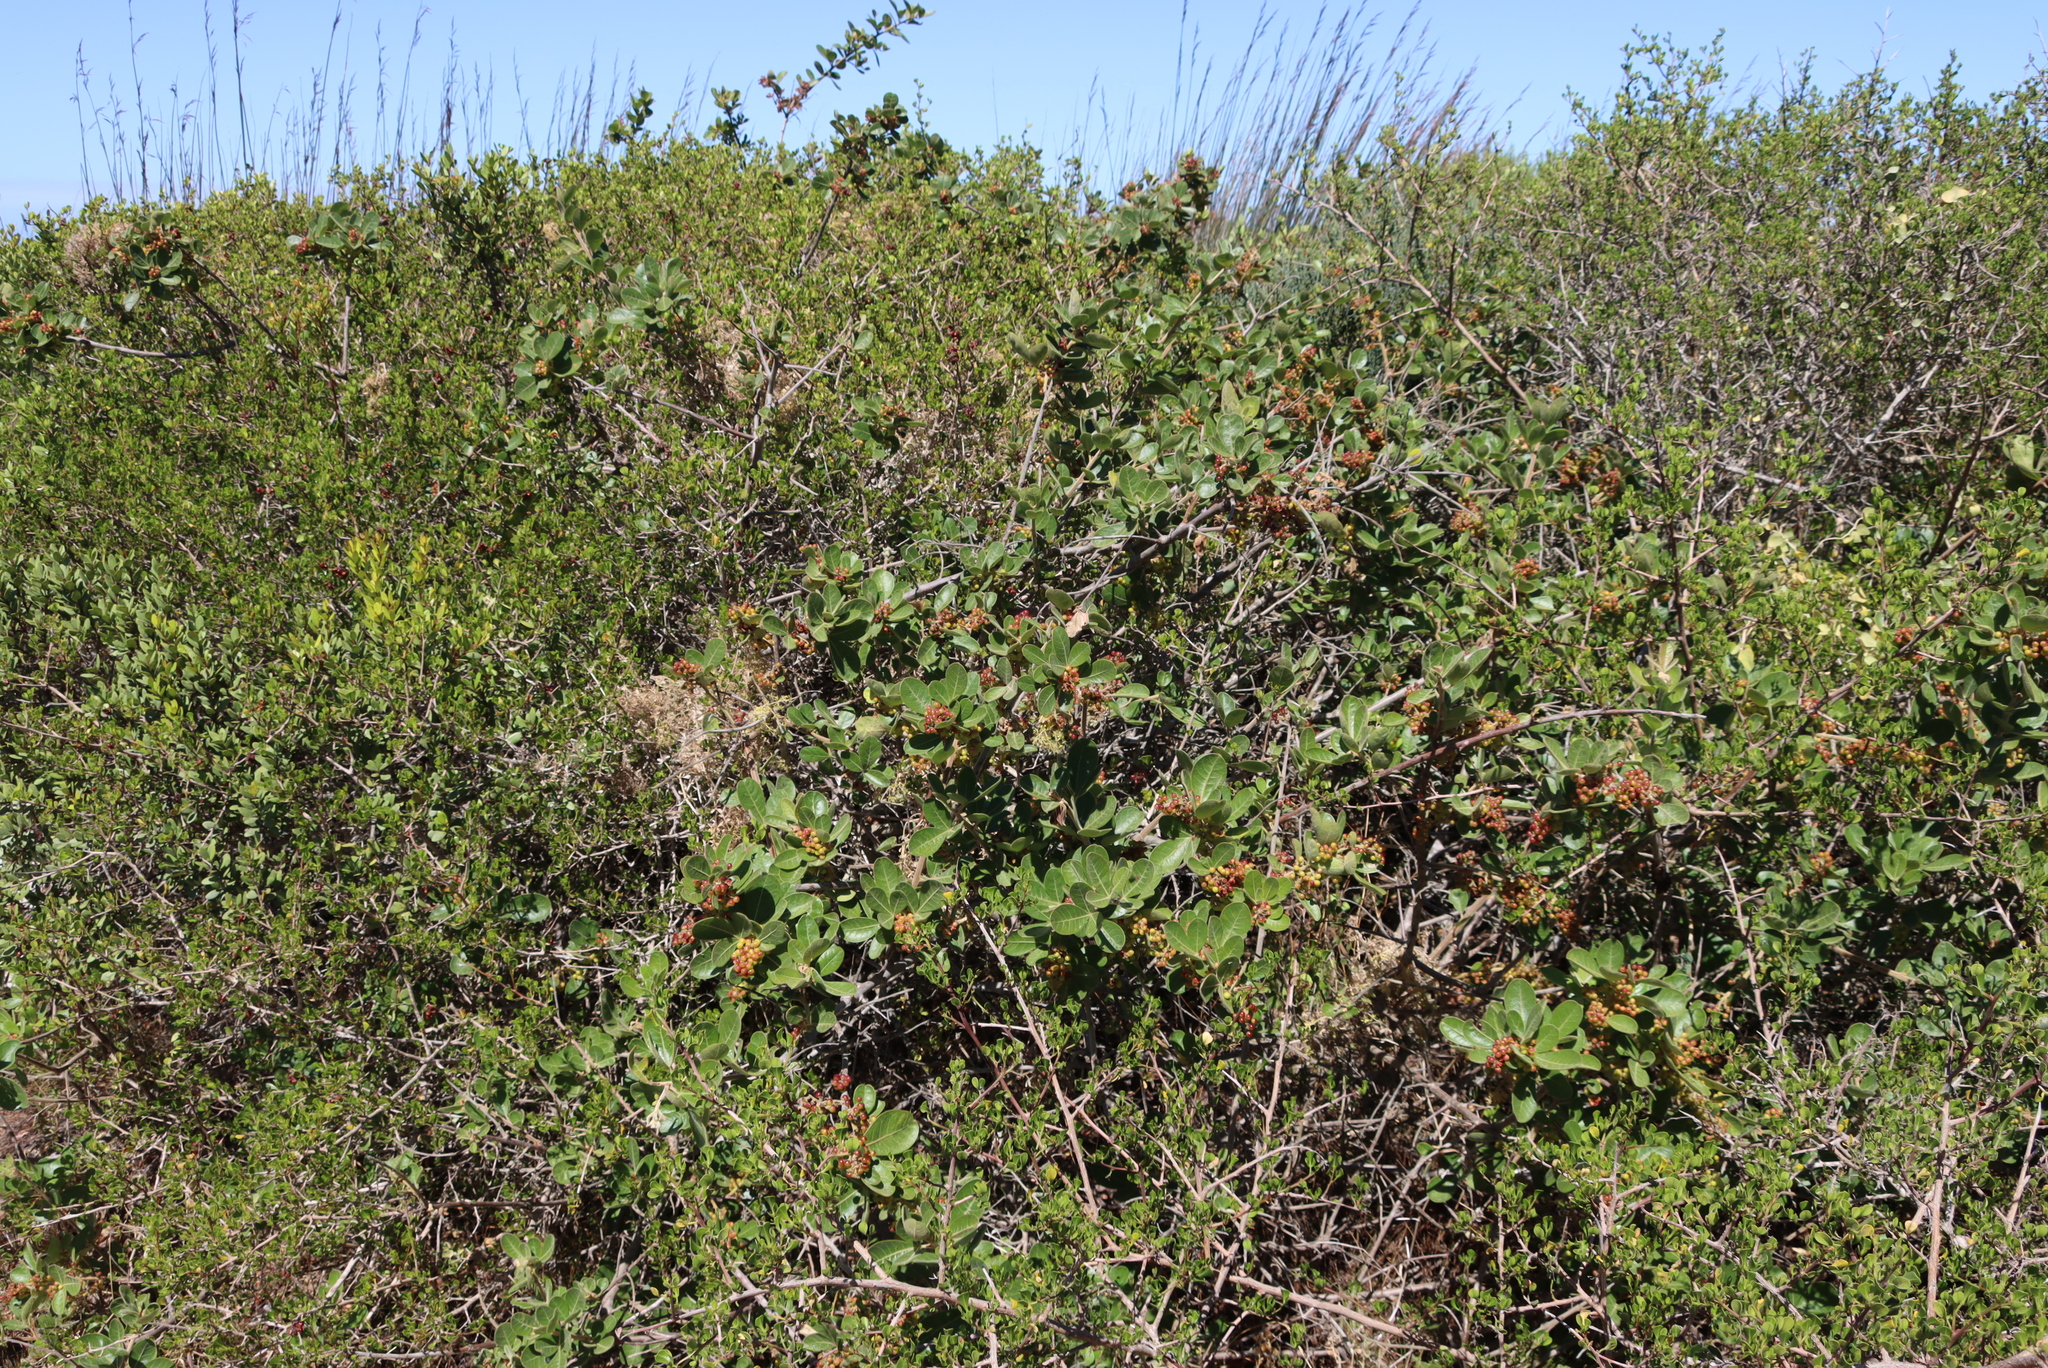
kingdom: Plantae
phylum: Tracheophyta
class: Magnoliopsida
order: Sapindales
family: Anacardiaceae
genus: Searsia
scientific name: Searsia laevigata
